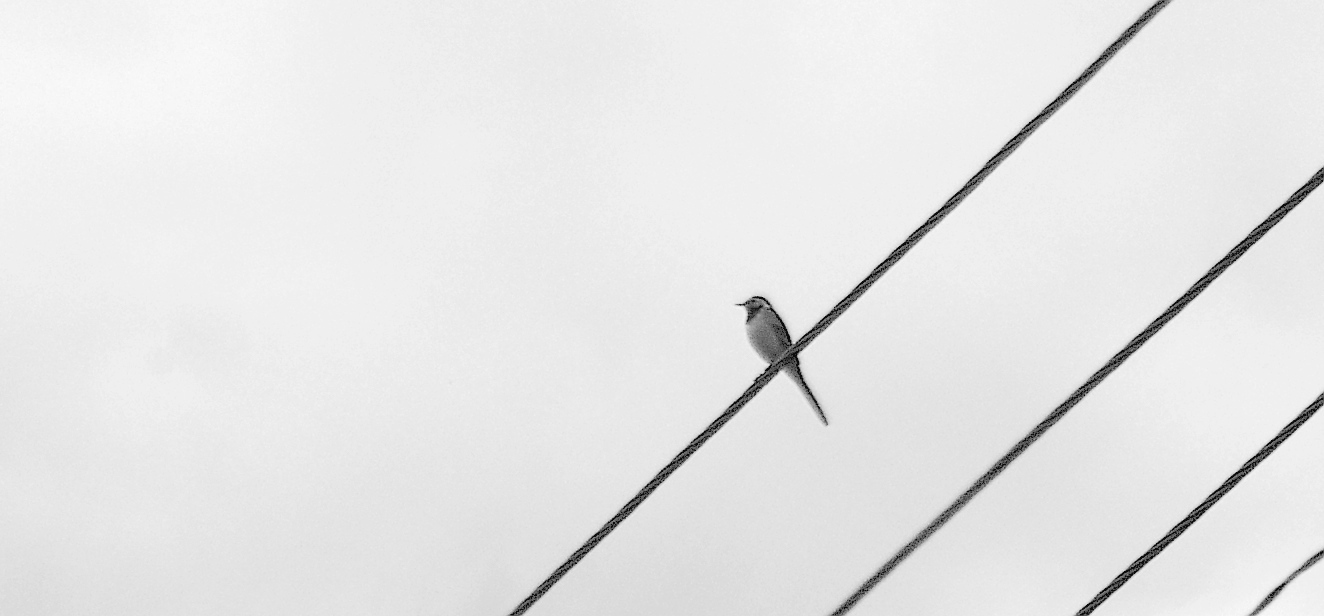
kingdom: Animalia
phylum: Chordata
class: Aves
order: Passeriformes
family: Motacillidae
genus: Motacilla
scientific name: Motacilla alba
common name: White wagtail
